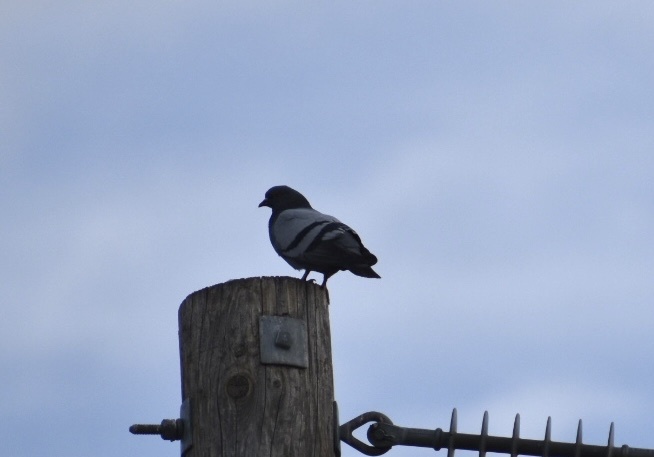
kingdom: Animalia
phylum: Chordata
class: Aves
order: Columbiformes
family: Columbidae
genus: Columba
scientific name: Columba livia
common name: Rock pigeon
